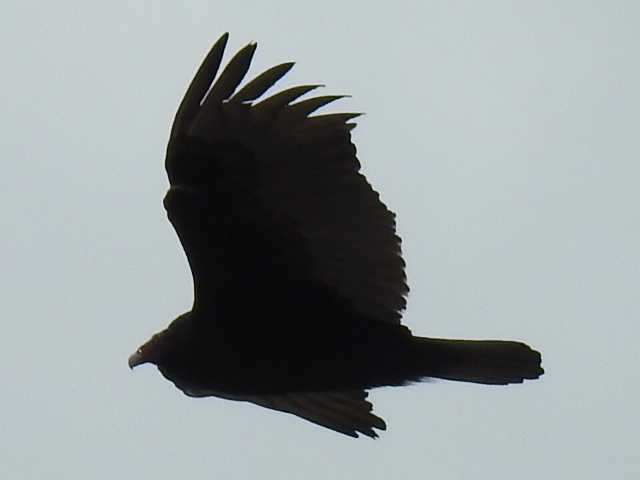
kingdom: Animalia
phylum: Chordata
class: Aves
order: Accipitriformes
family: Cathartidae
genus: Cathartes
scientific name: Cathartes aura
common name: Turkey vulture
